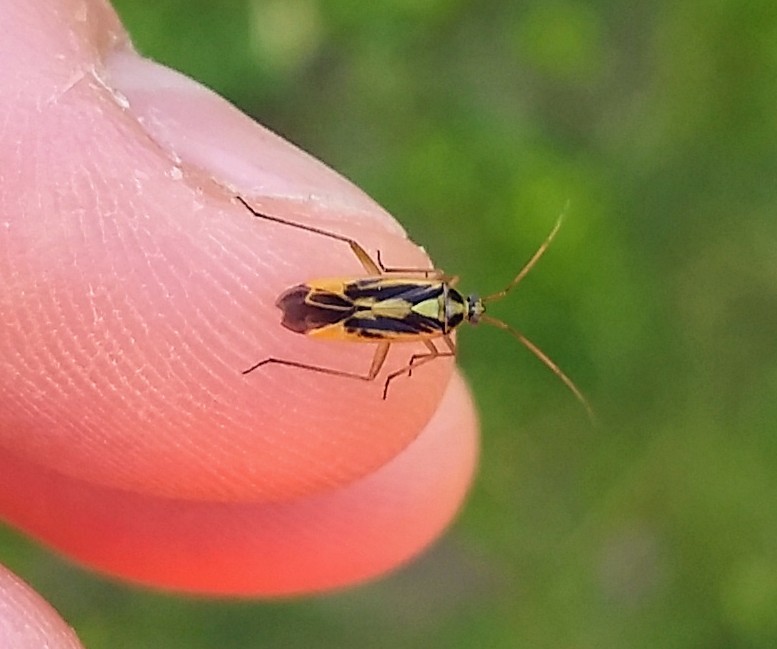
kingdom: Animalia
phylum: Arthropoda
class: Insecta
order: Hemiptera
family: Miridae
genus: Stenotus
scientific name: Stenotus binotatus
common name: Plant bug
